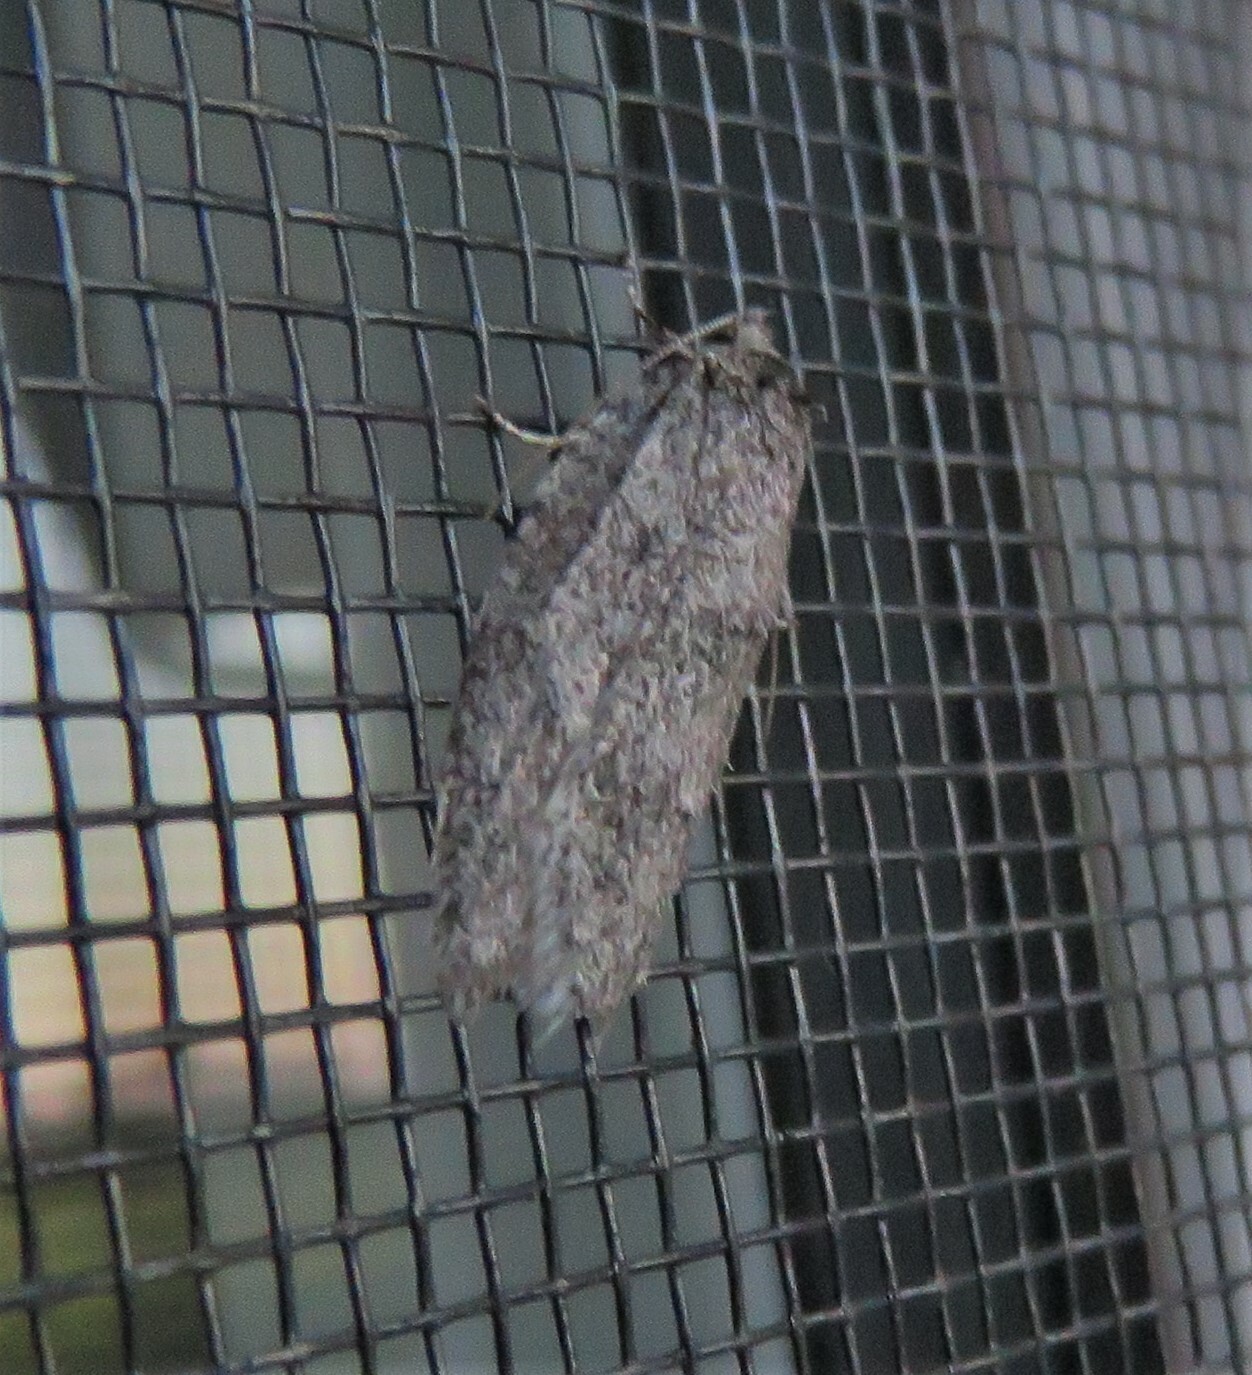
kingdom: Animalia
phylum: Arthropoda
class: Insecta
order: Lepidoptera
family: Depressariidae
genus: Semioscopis
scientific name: Semioscopis inornata
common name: Poplar micromoth
